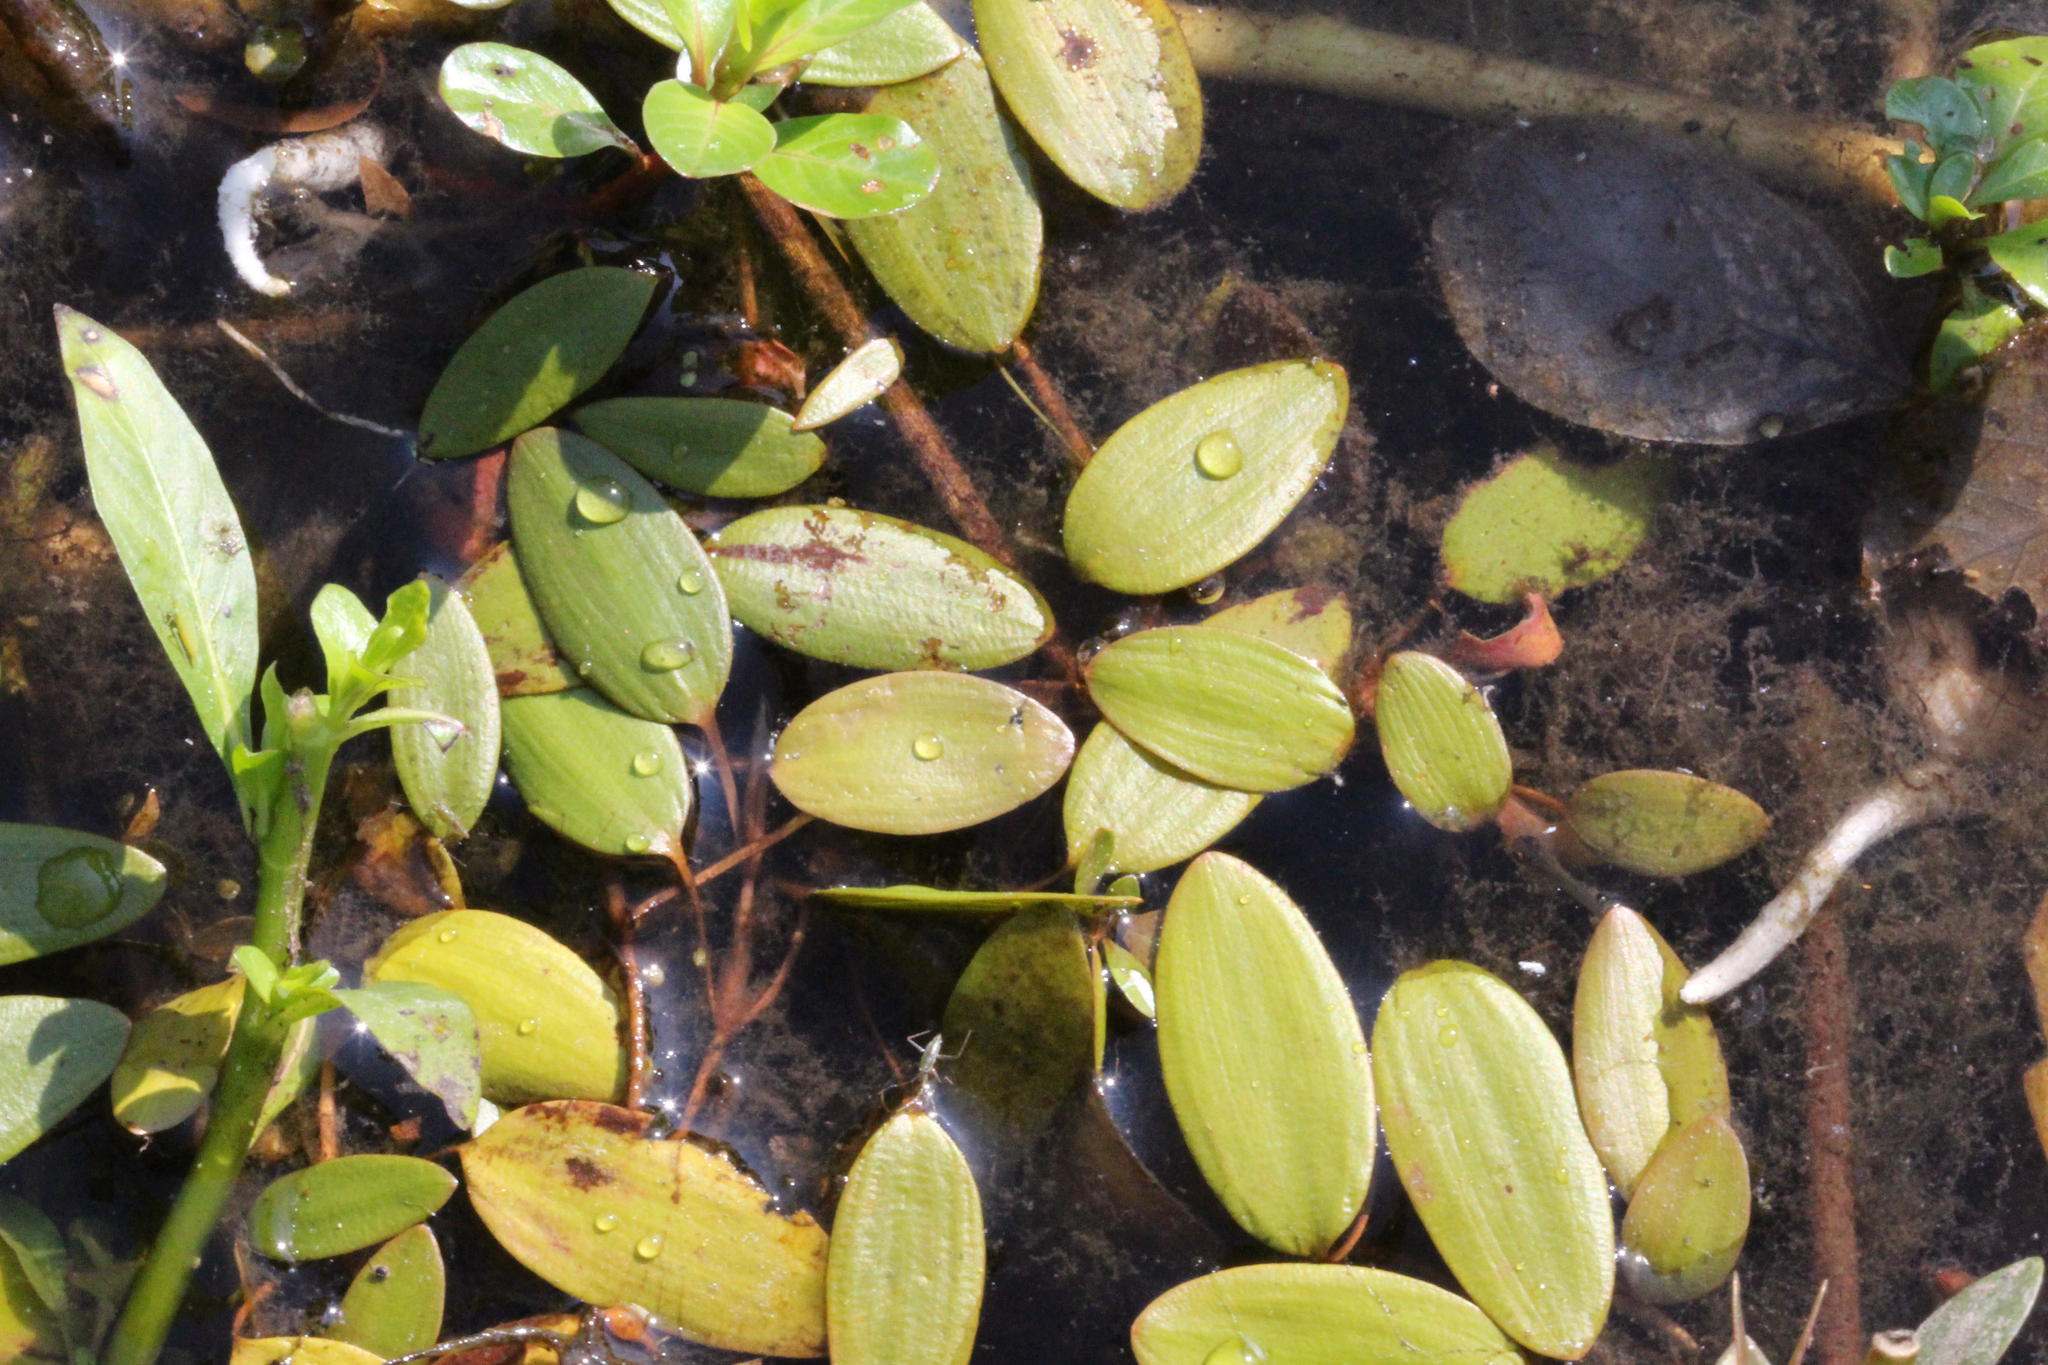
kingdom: Plantae
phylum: Tracheophyta
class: Liliopsida
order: Alismatales
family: Potamogetonaceae
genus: Potamogeton
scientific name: Potamogeton diversifolius
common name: Water-thread pondweed
